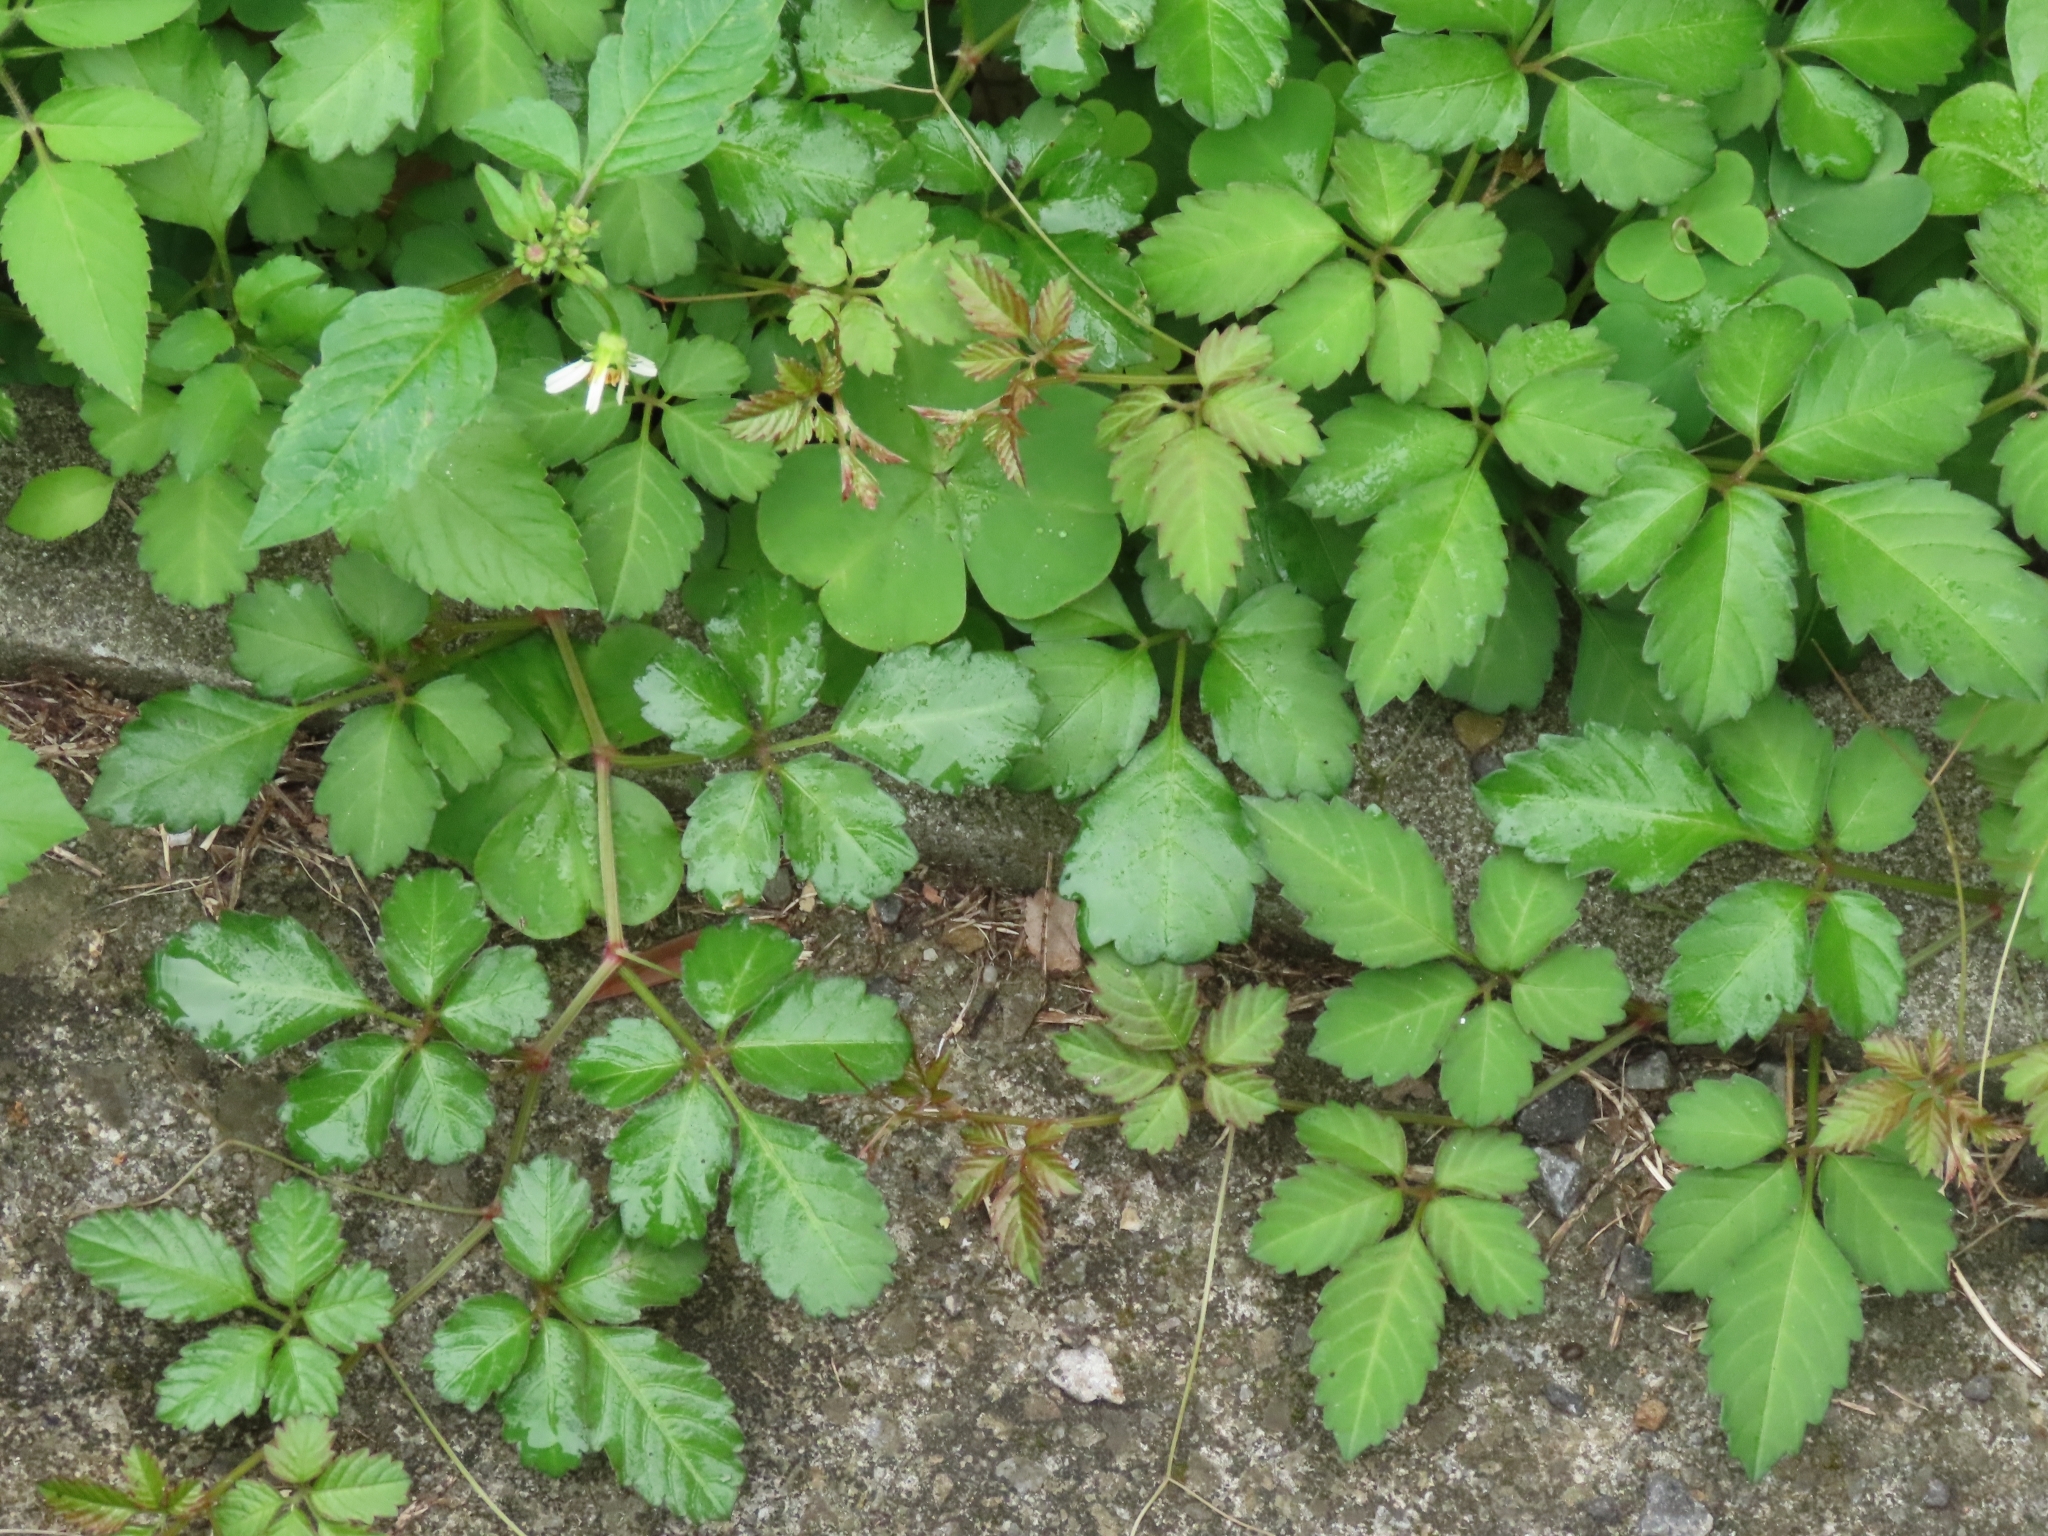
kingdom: Plantae
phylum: Tracheophyta
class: Magnoliopsida
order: Vitales
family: Vitaceae
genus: Causonis
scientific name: Causonis japonica
